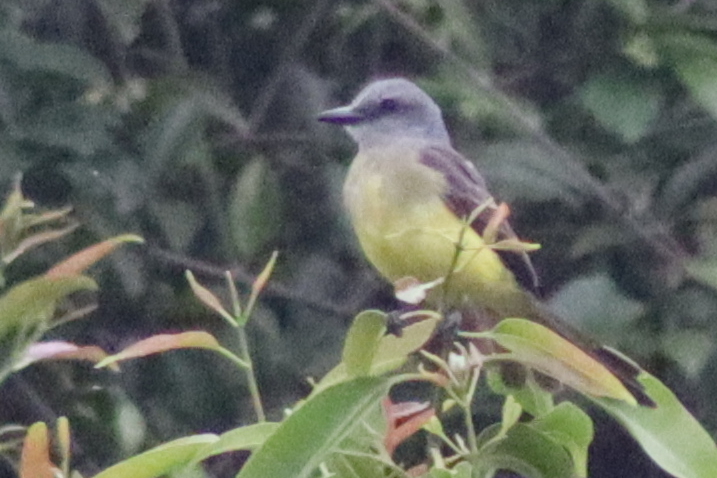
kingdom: Animalia
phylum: Chordata
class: Aves
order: Passeriformes
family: Tyrannidae
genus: Tyrannus
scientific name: Tyrannus melancholicus
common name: Tropical kingbird
